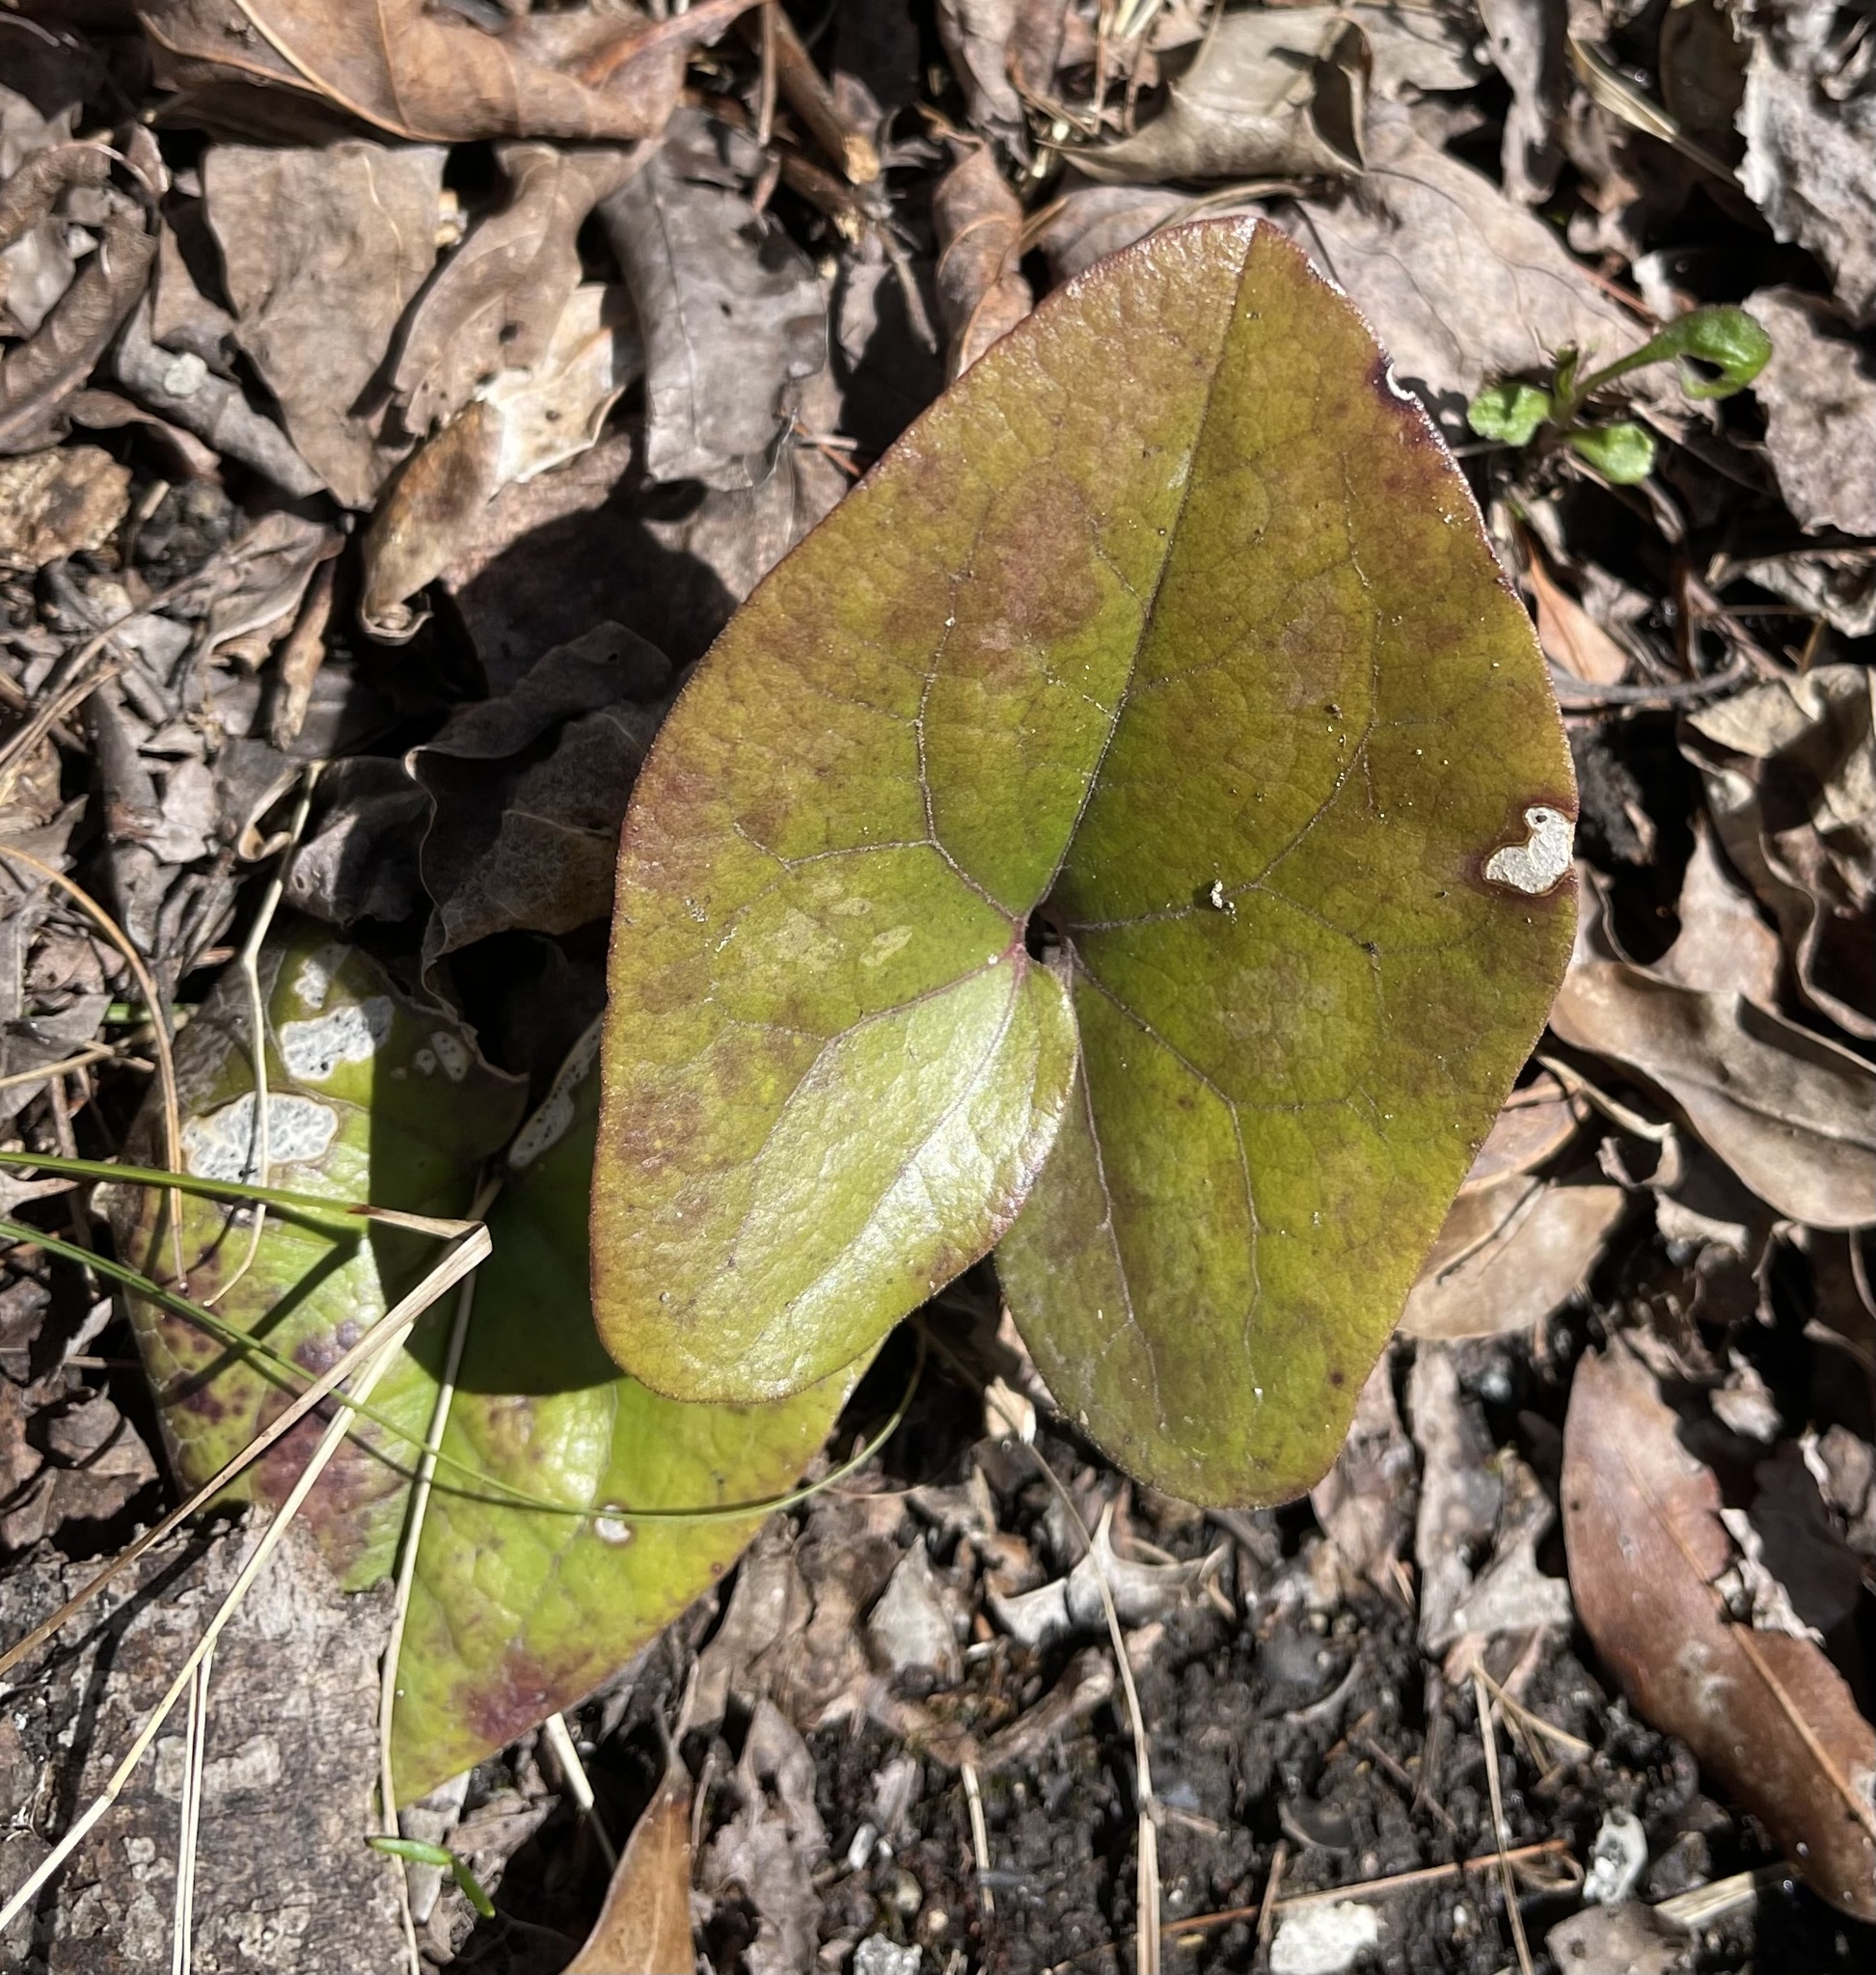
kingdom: Plantae
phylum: Tracheophyta
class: Magnoliopsida
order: Piperales
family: Aristolochiaceae
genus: Hexastylis
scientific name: Hexastylis arifolia
